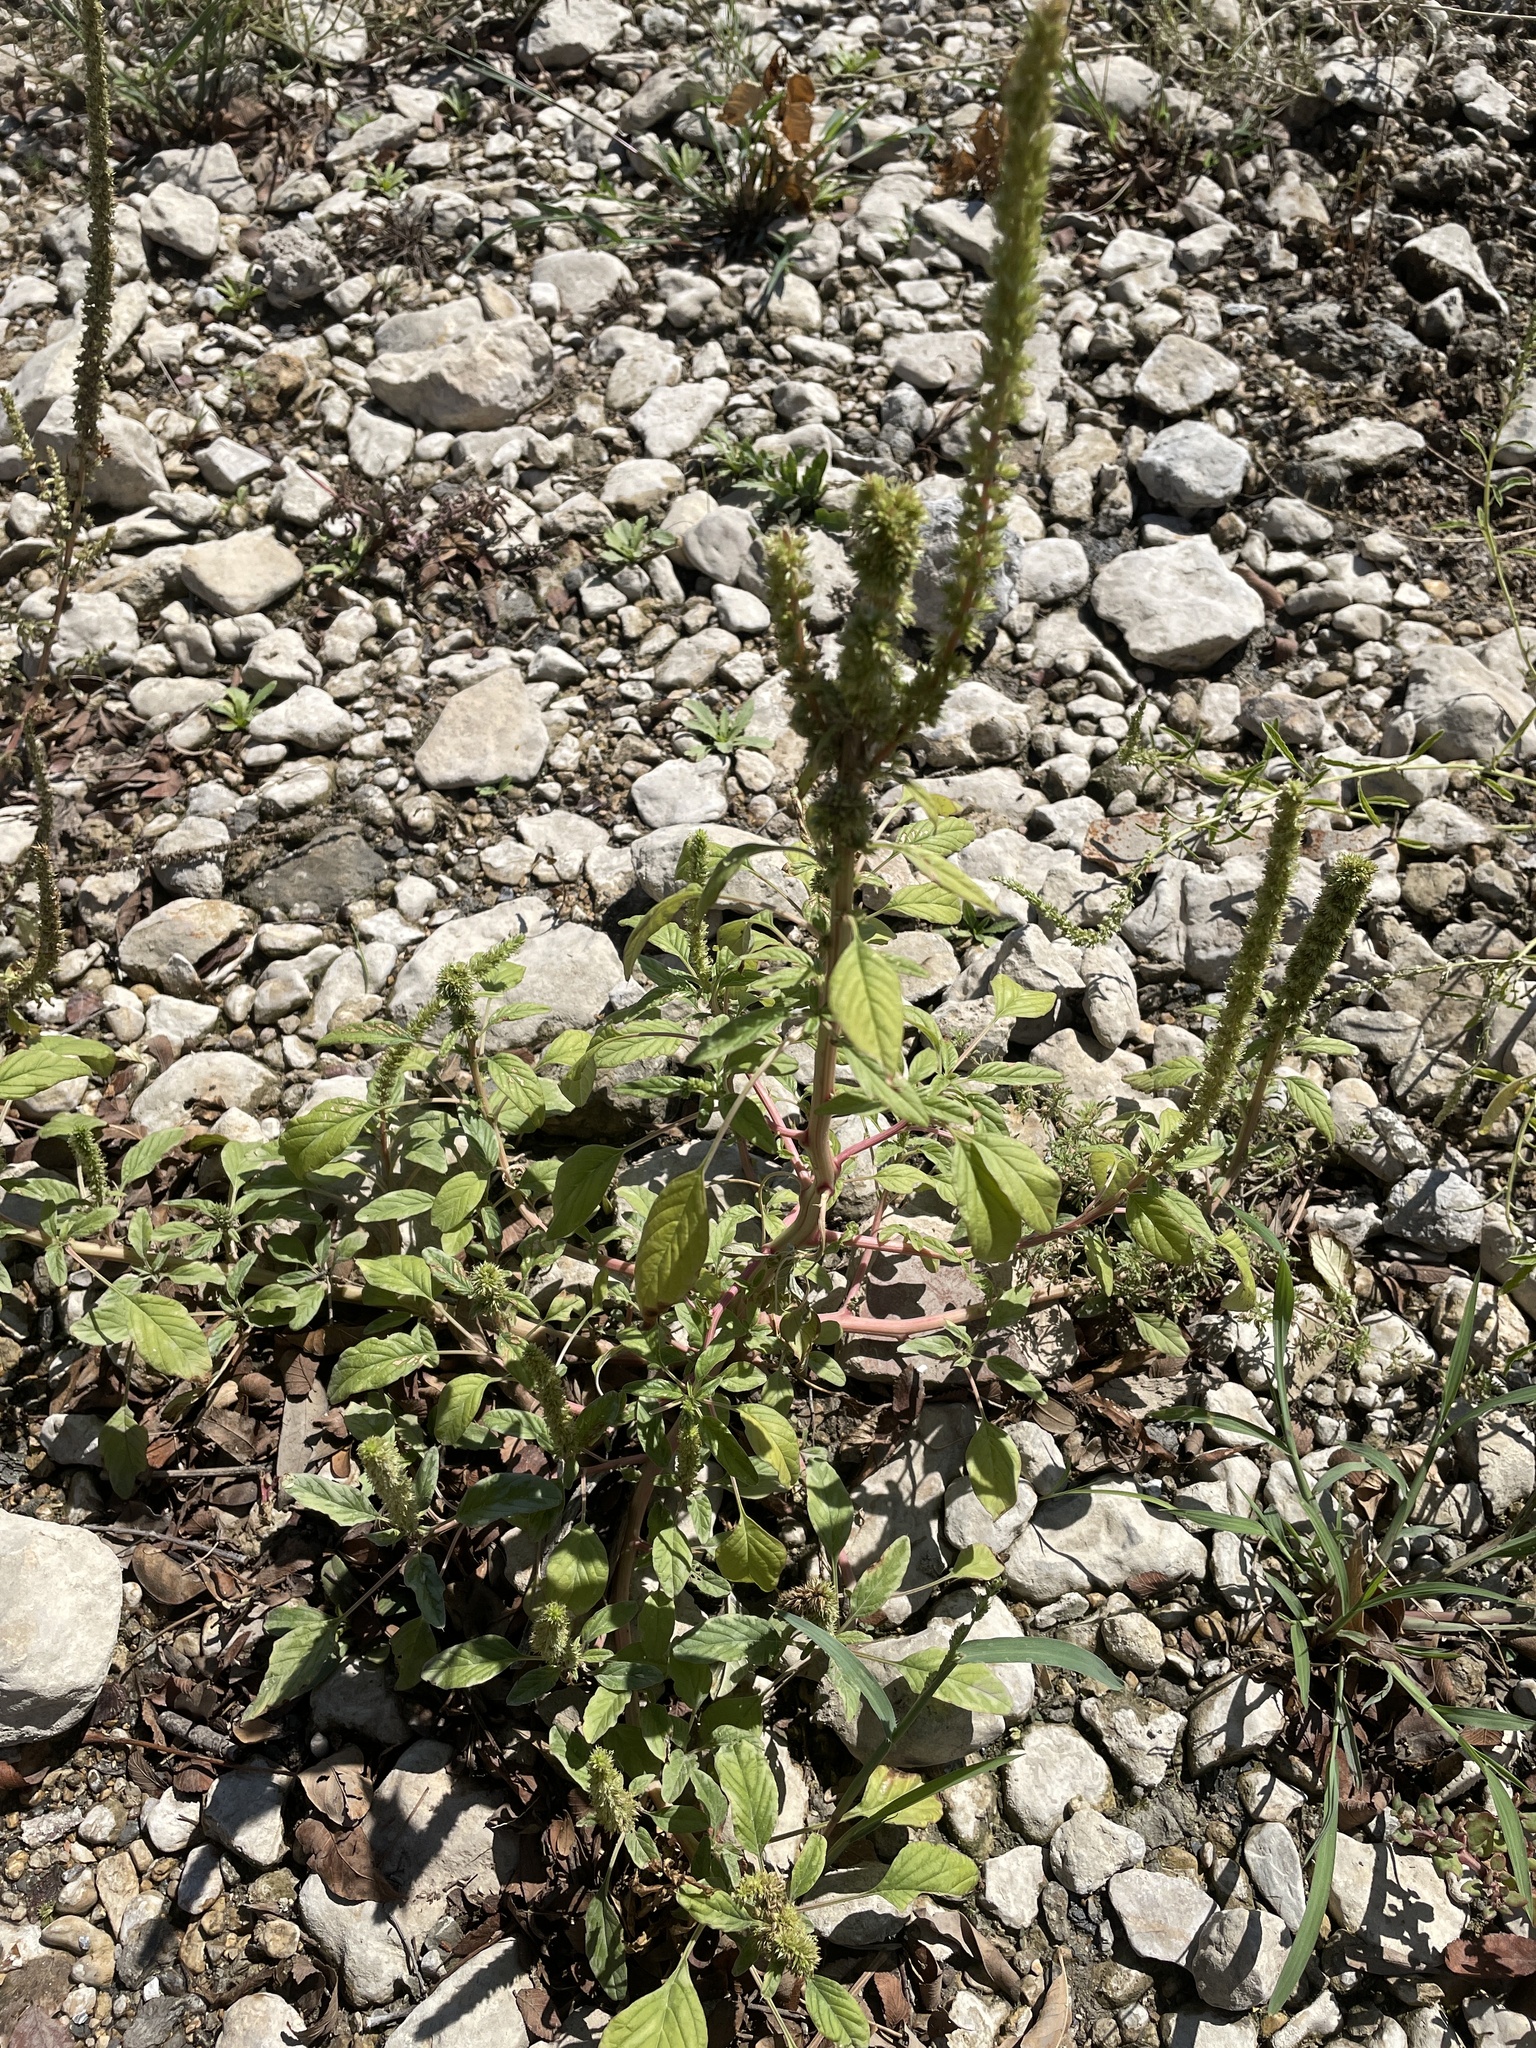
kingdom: Plantae
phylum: Tracheophyta
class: Magnoliopsida
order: Caryophyllales
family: Amaranthaceae
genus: Amaranthus
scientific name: Amaranthus palmeri
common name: Dioecious amaranth
